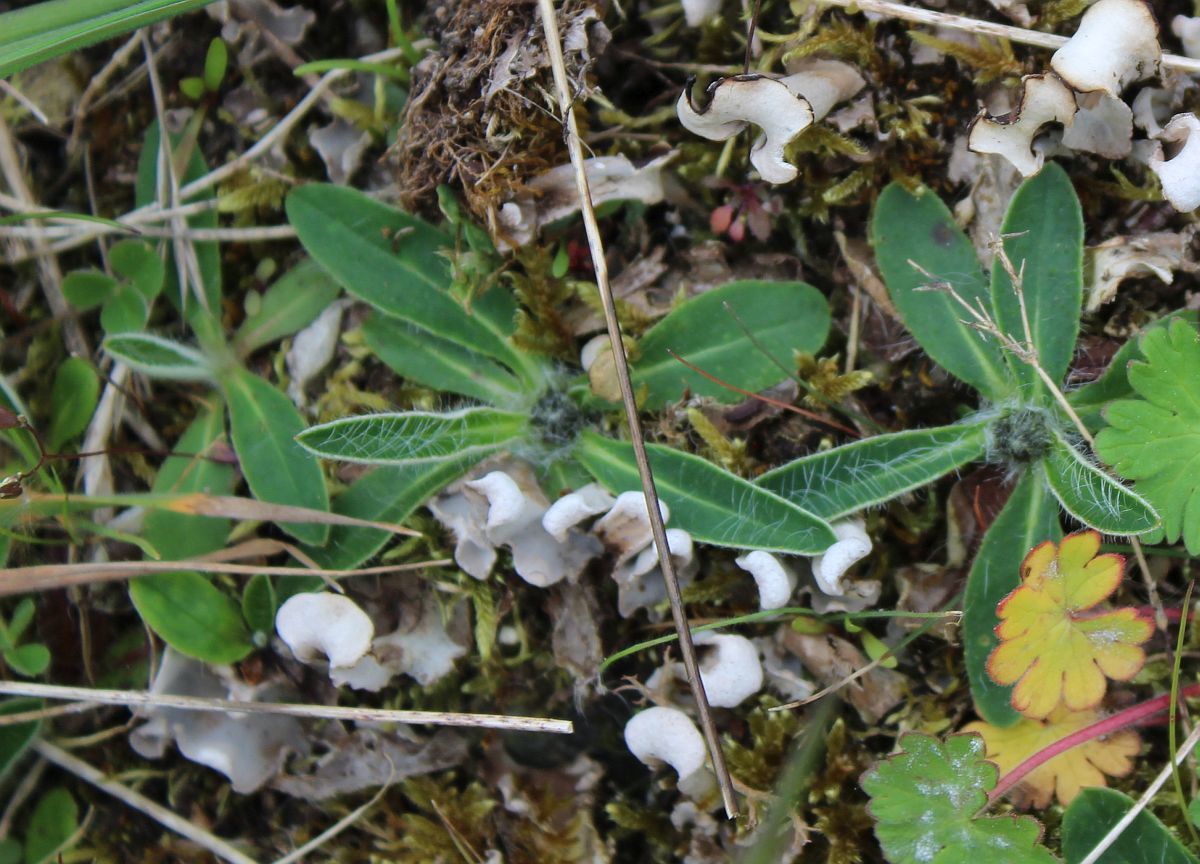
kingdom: Plantae
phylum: Tracheophyta
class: Magnoliopsida
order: Asterales
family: Asteraceae
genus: Pilosella
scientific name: Pilosella officinarum
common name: Mouse-ear hawkweed
